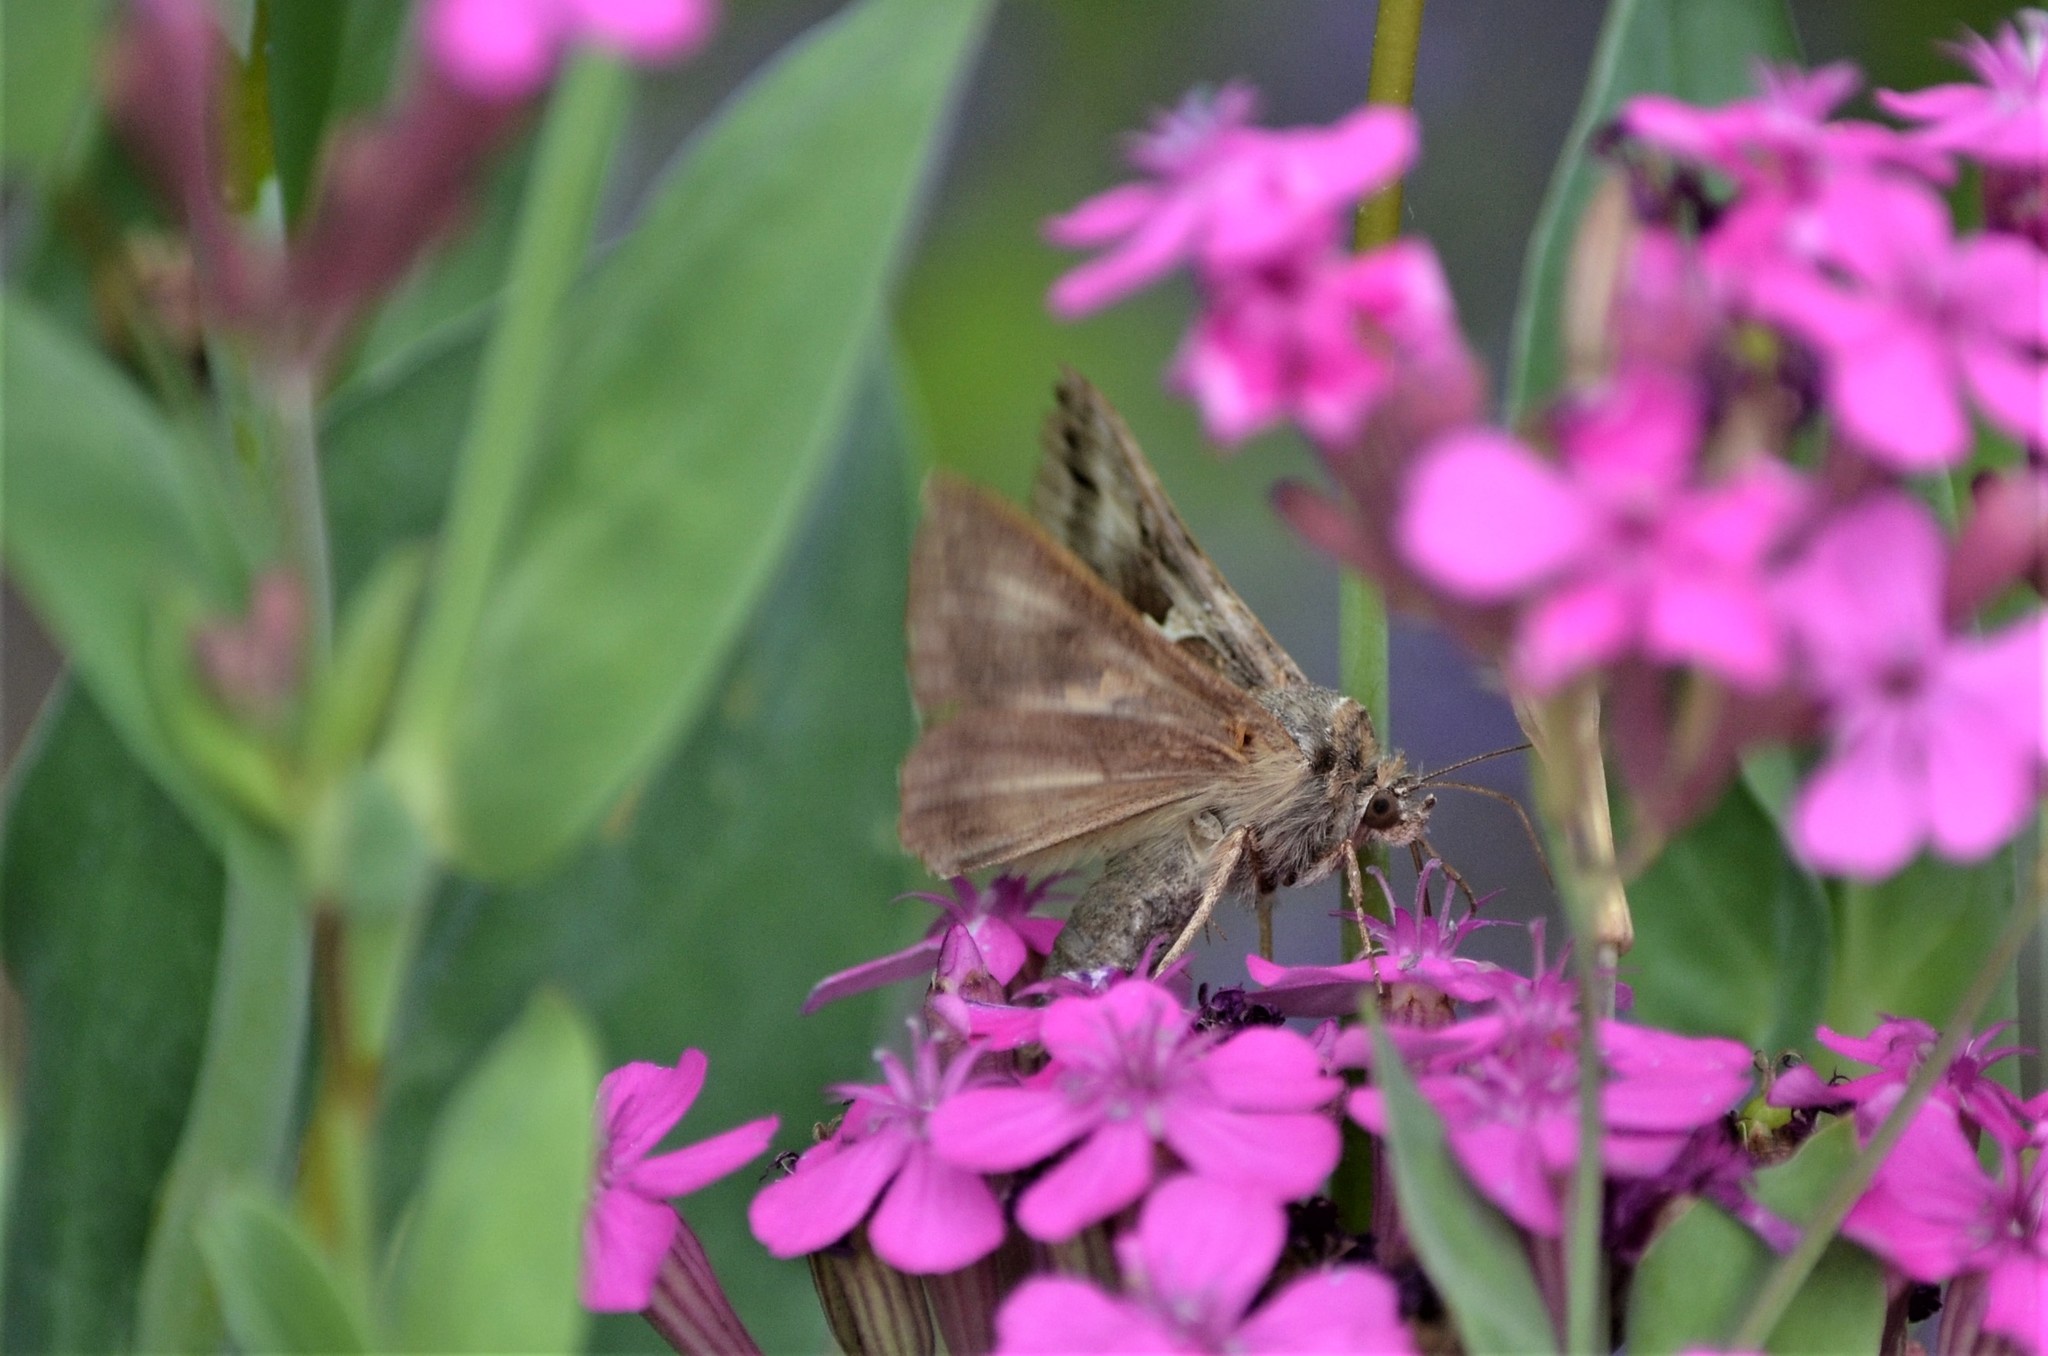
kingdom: Animalia
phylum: Arthropoda
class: Insecta
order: Lepidoptera
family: Noctuidae
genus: Autographa
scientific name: Autographa gamma
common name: Silver y
